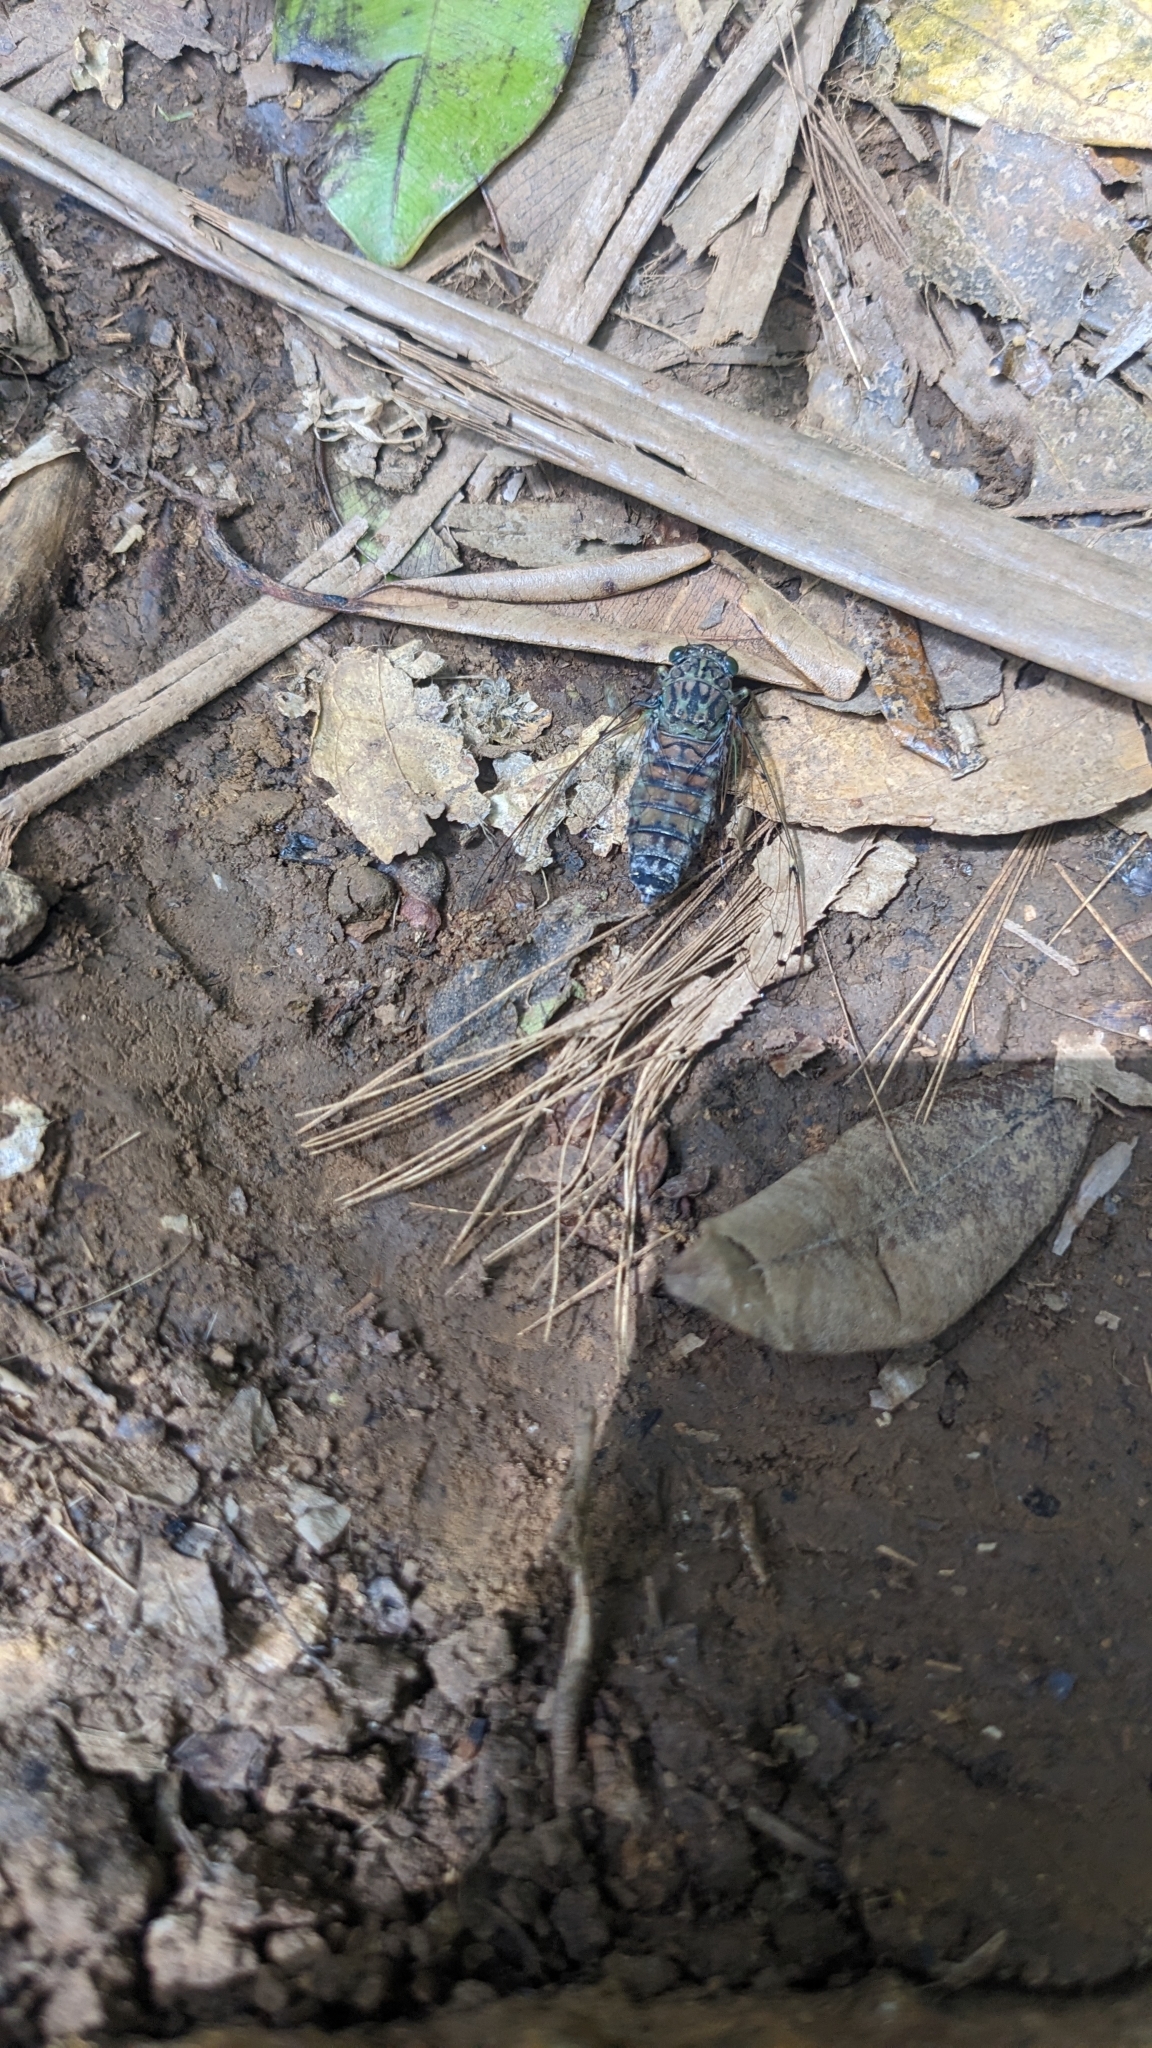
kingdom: Animalia
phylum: Arthropoda
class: Insecta
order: Hemiptera
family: Cicadidae
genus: Euterpnosia
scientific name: Euterpnosia kotoshoensis
